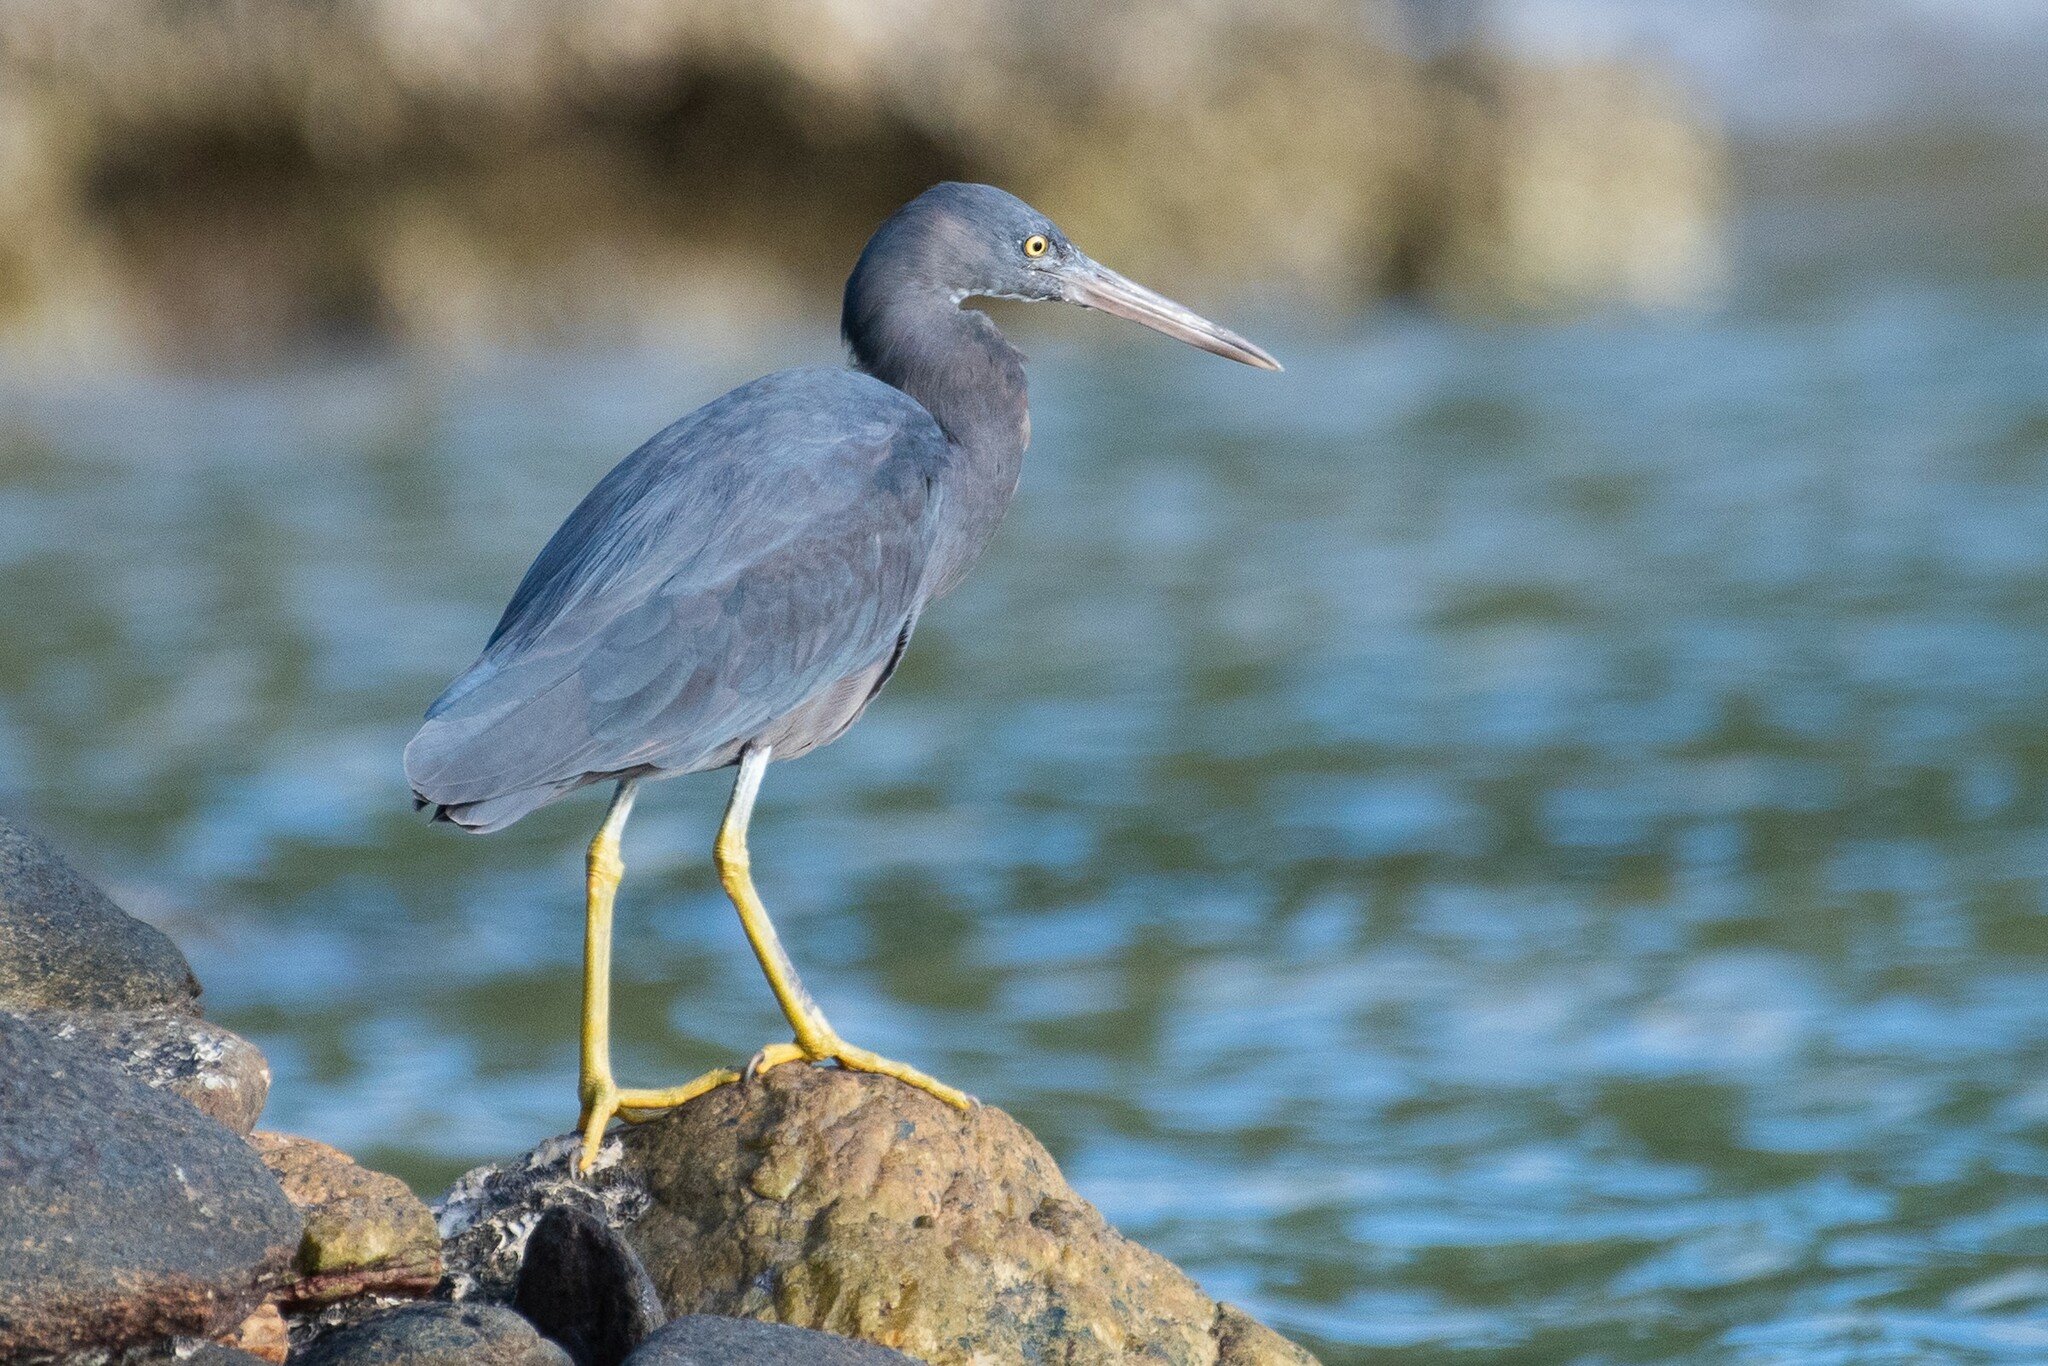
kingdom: Animalia
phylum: Chordata
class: Aves
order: Pelecaniformes
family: Ardeidae
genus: Egretta
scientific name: Egretta sacra
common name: Pacific reef heron
